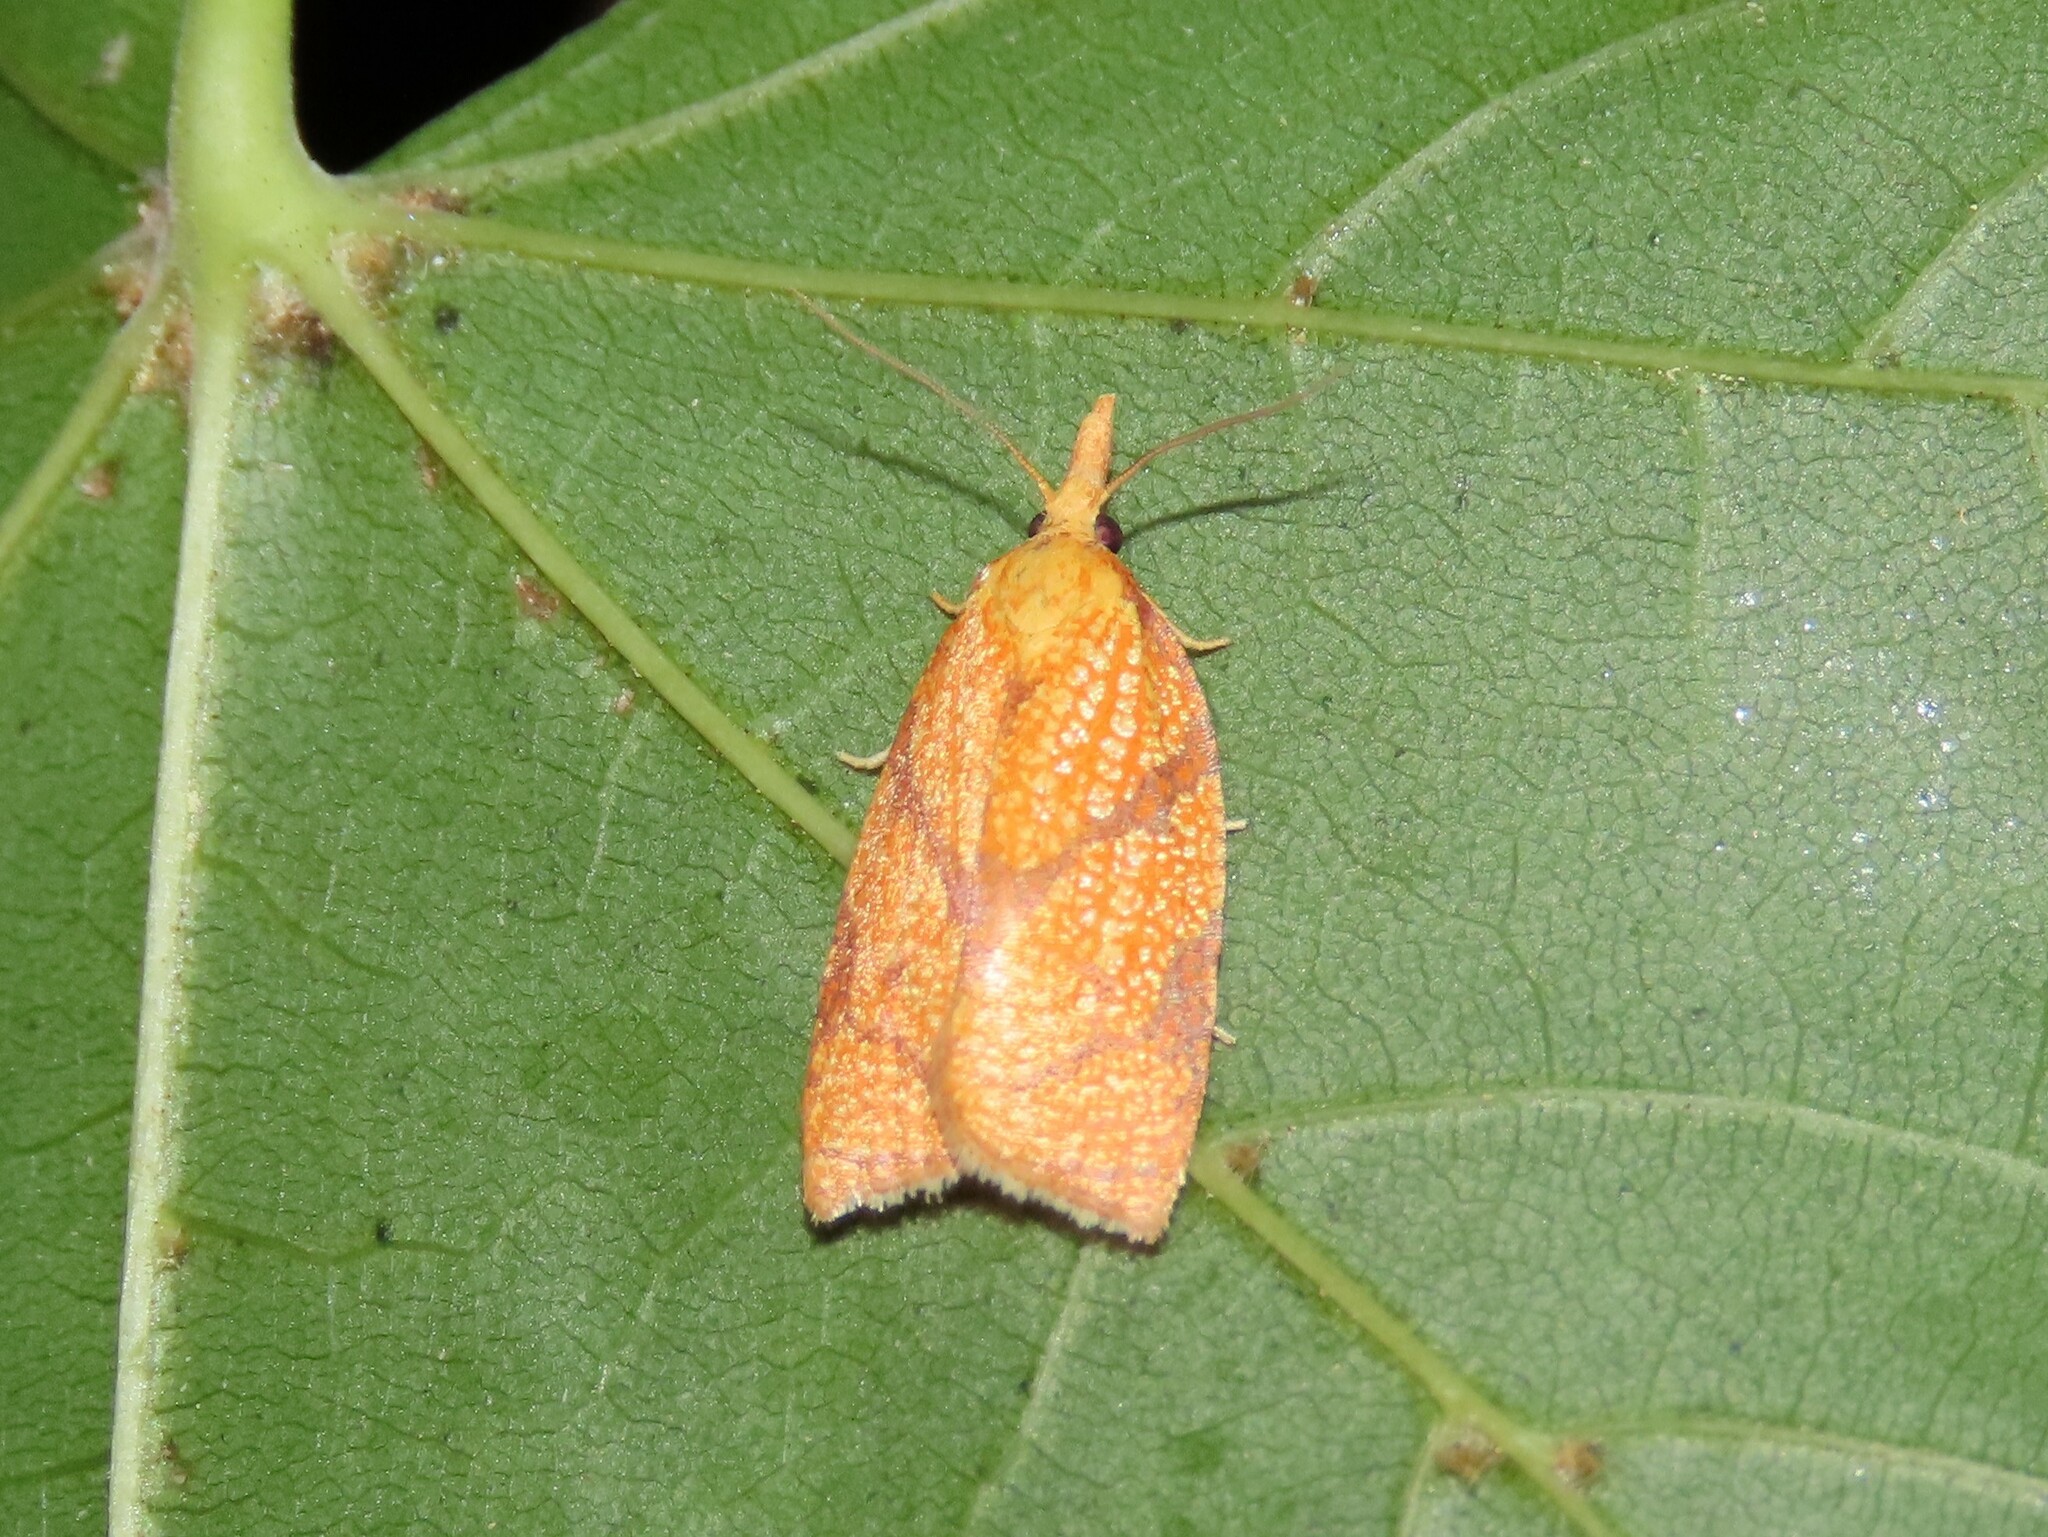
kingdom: Animalia
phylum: Arthropoda
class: Insecta
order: Lepidoptera
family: Tortricidae
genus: Cenopis
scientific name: Cenopis reticulatana
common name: Reticulated fruitworm moth
